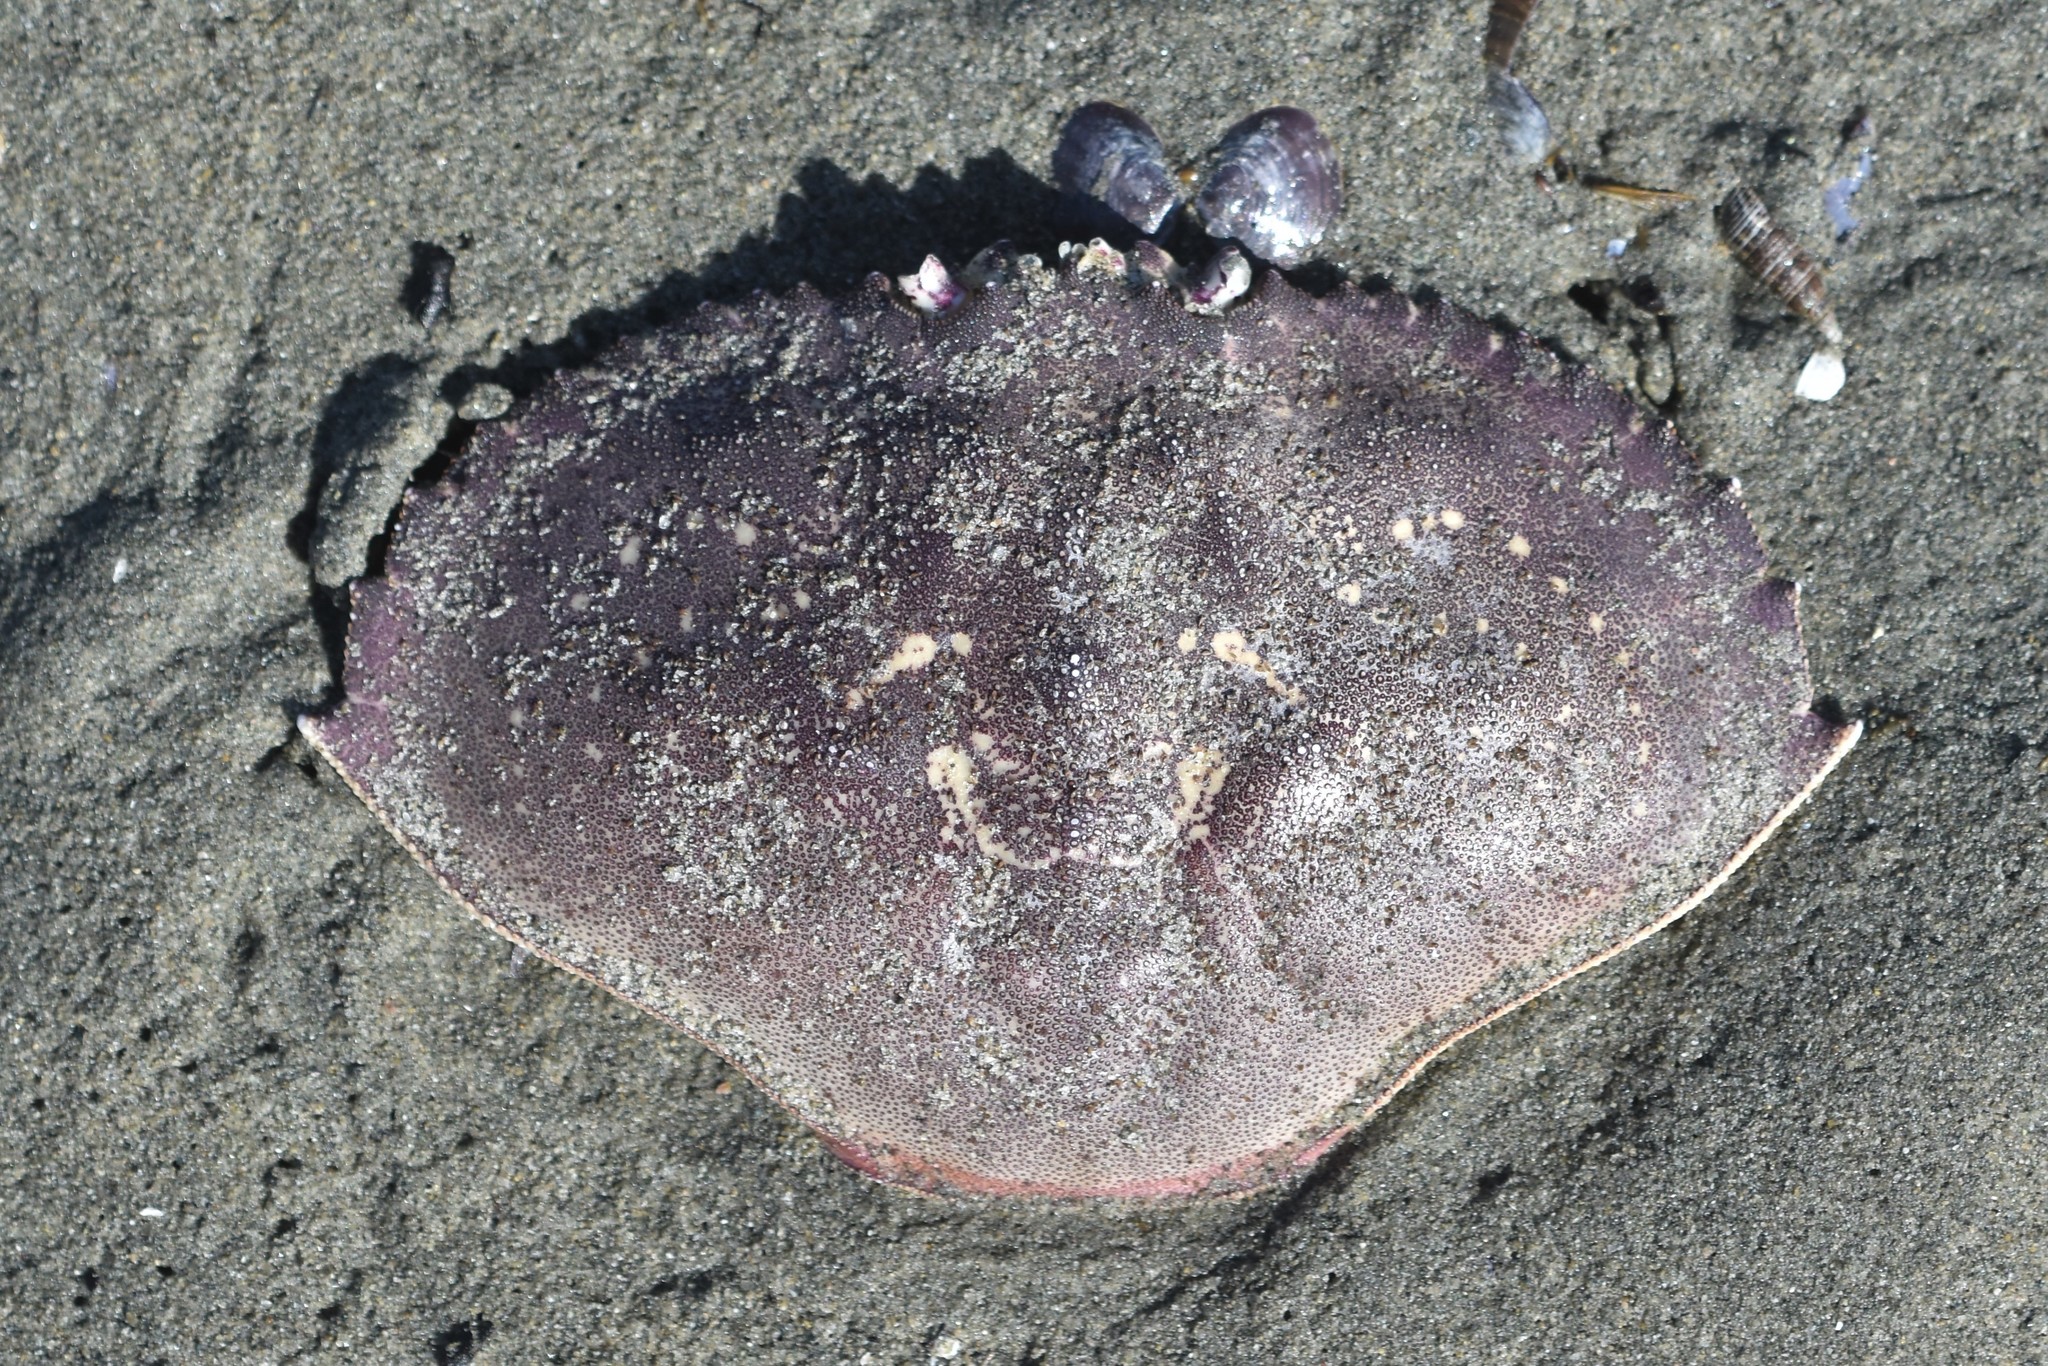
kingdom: Animalia
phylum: Arthropoda
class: Malacostraca
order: Decapoda
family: Cancridae
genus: Metacarcinus
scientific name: Metacarcinus magister
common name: Californian crab
